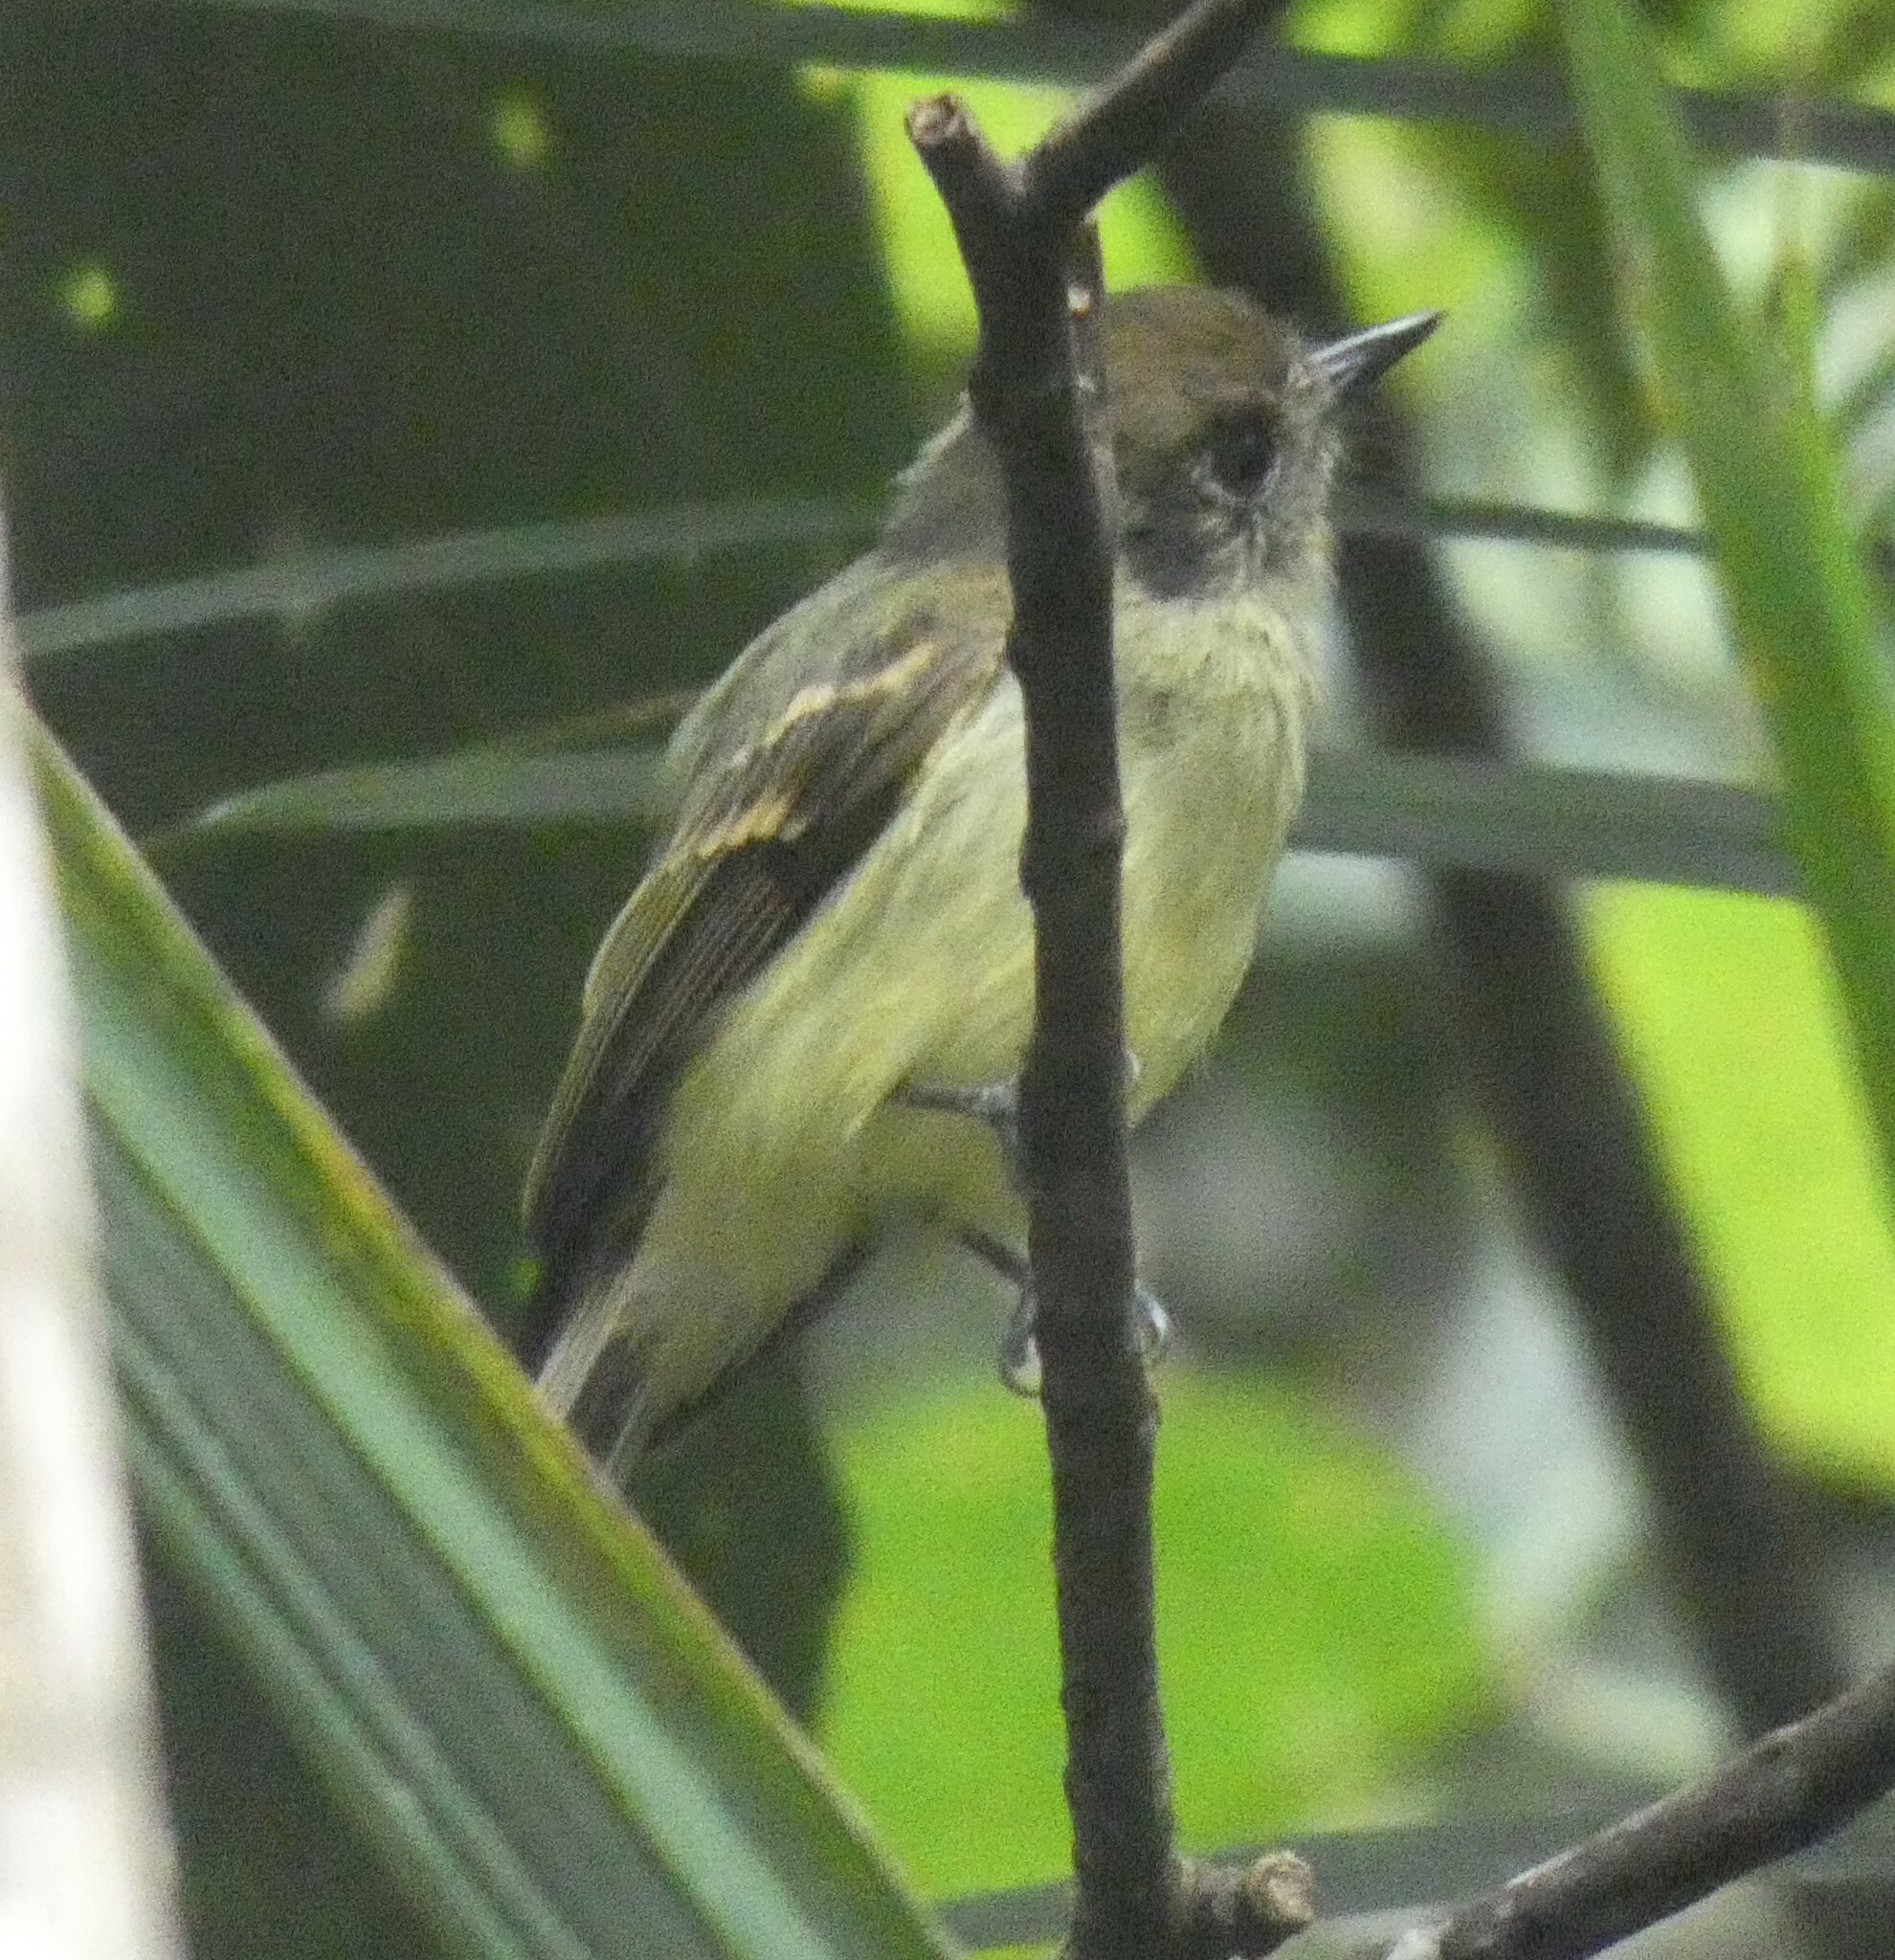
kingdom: Animalia
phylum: Chordata
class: Aves
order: Passeriformes
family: Tyrannidae
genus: Leptopogon
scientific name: Leptopogon amaurocephalus
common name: Sepia-capped flycatcher
